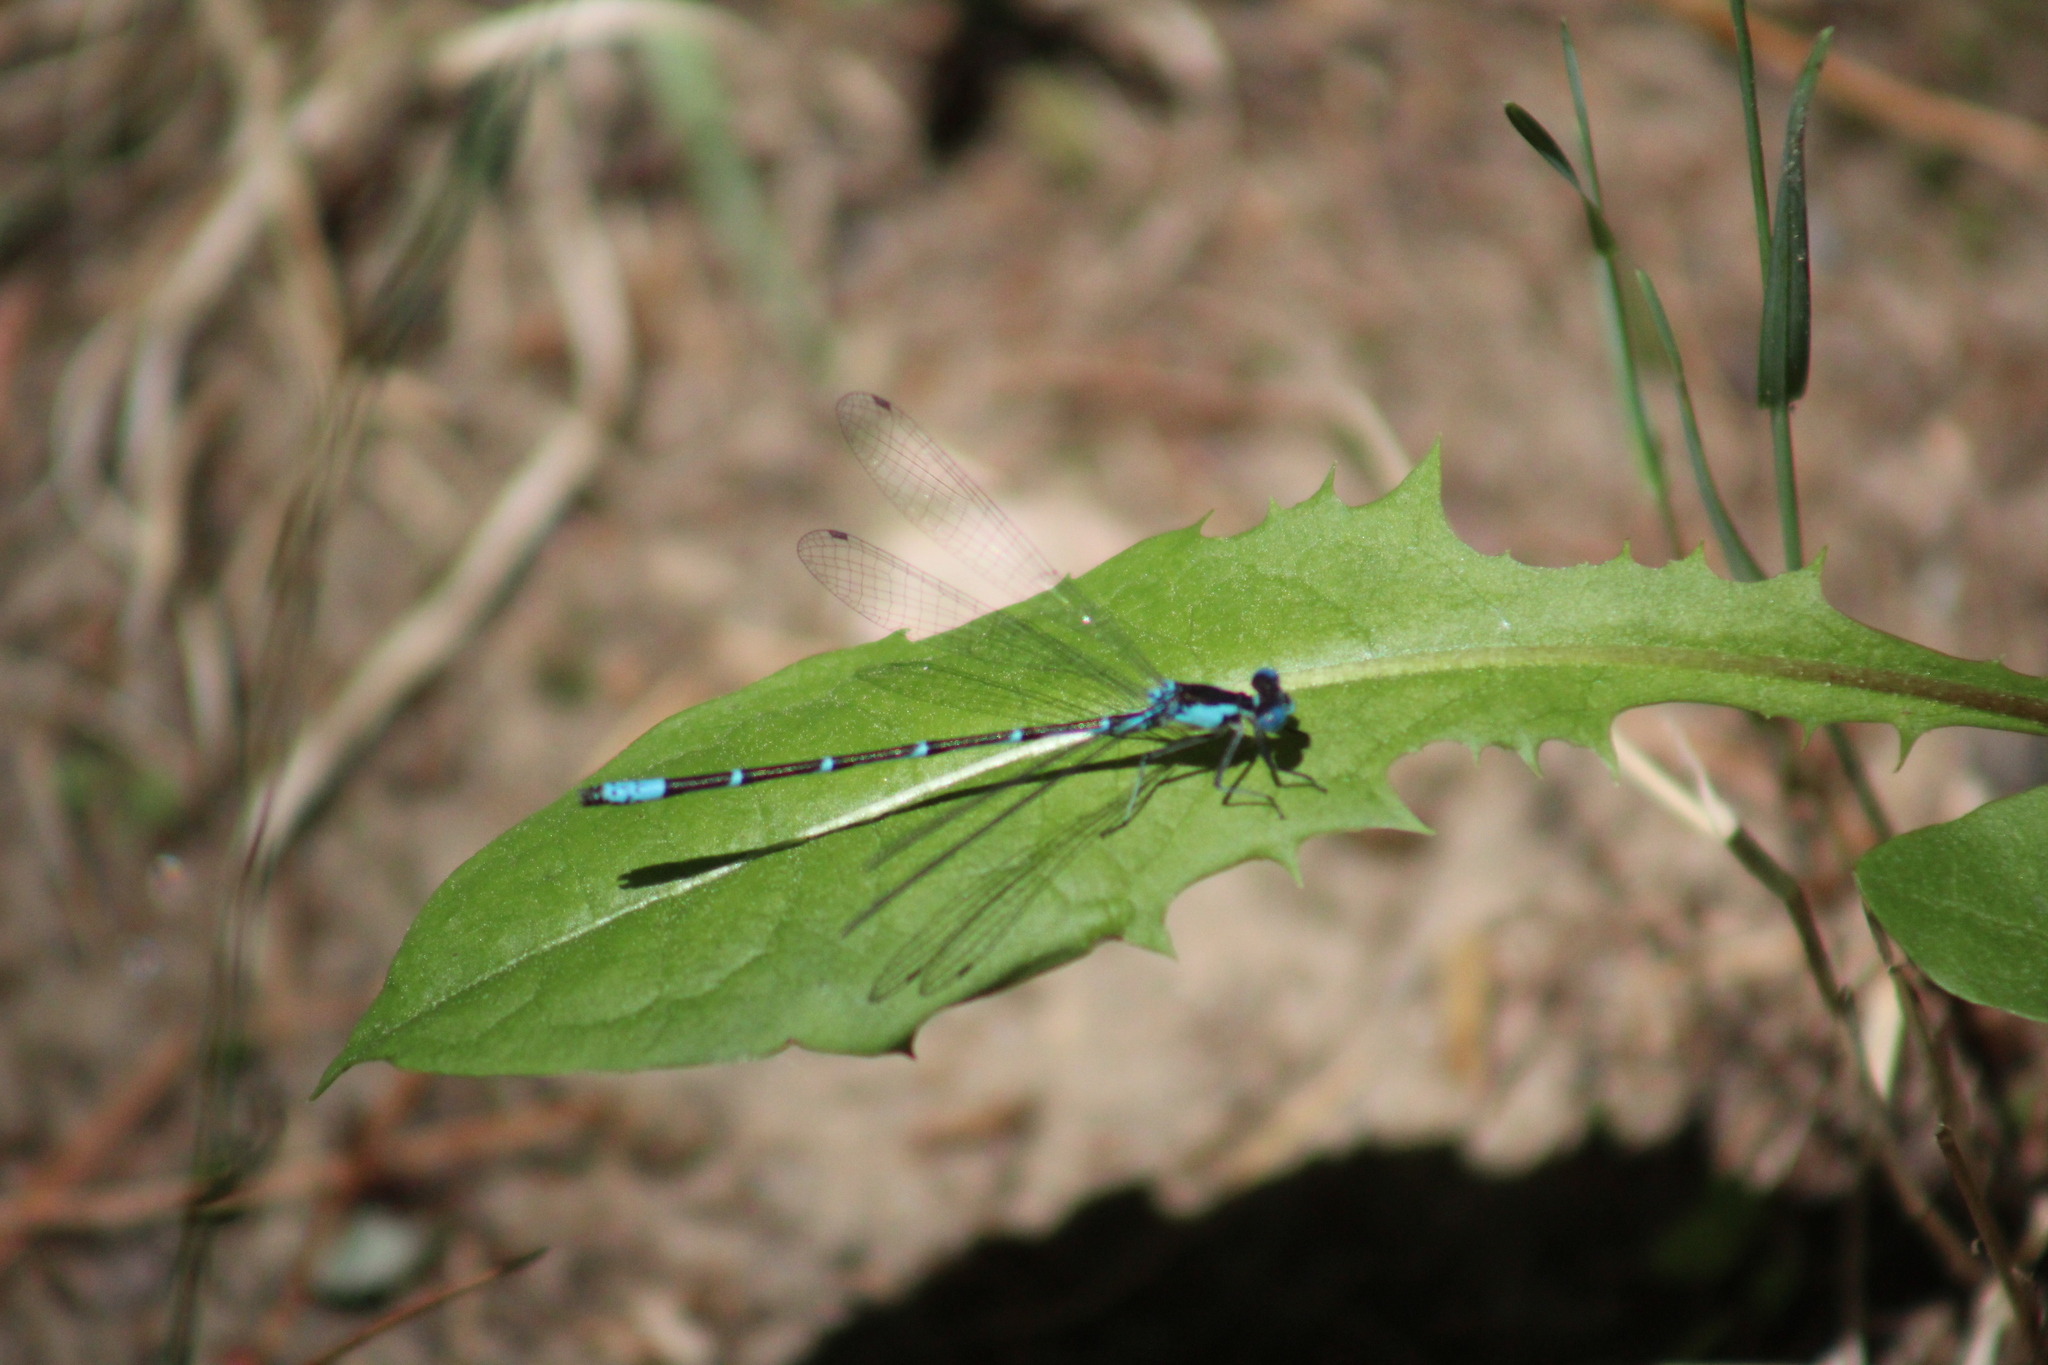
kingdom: Animalia
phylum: Arthropoda
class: Insecta
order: Odonata
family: Coenagrionidae
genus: Chromagrion
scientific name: Chromagrion conditum
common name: Aurora damsel
